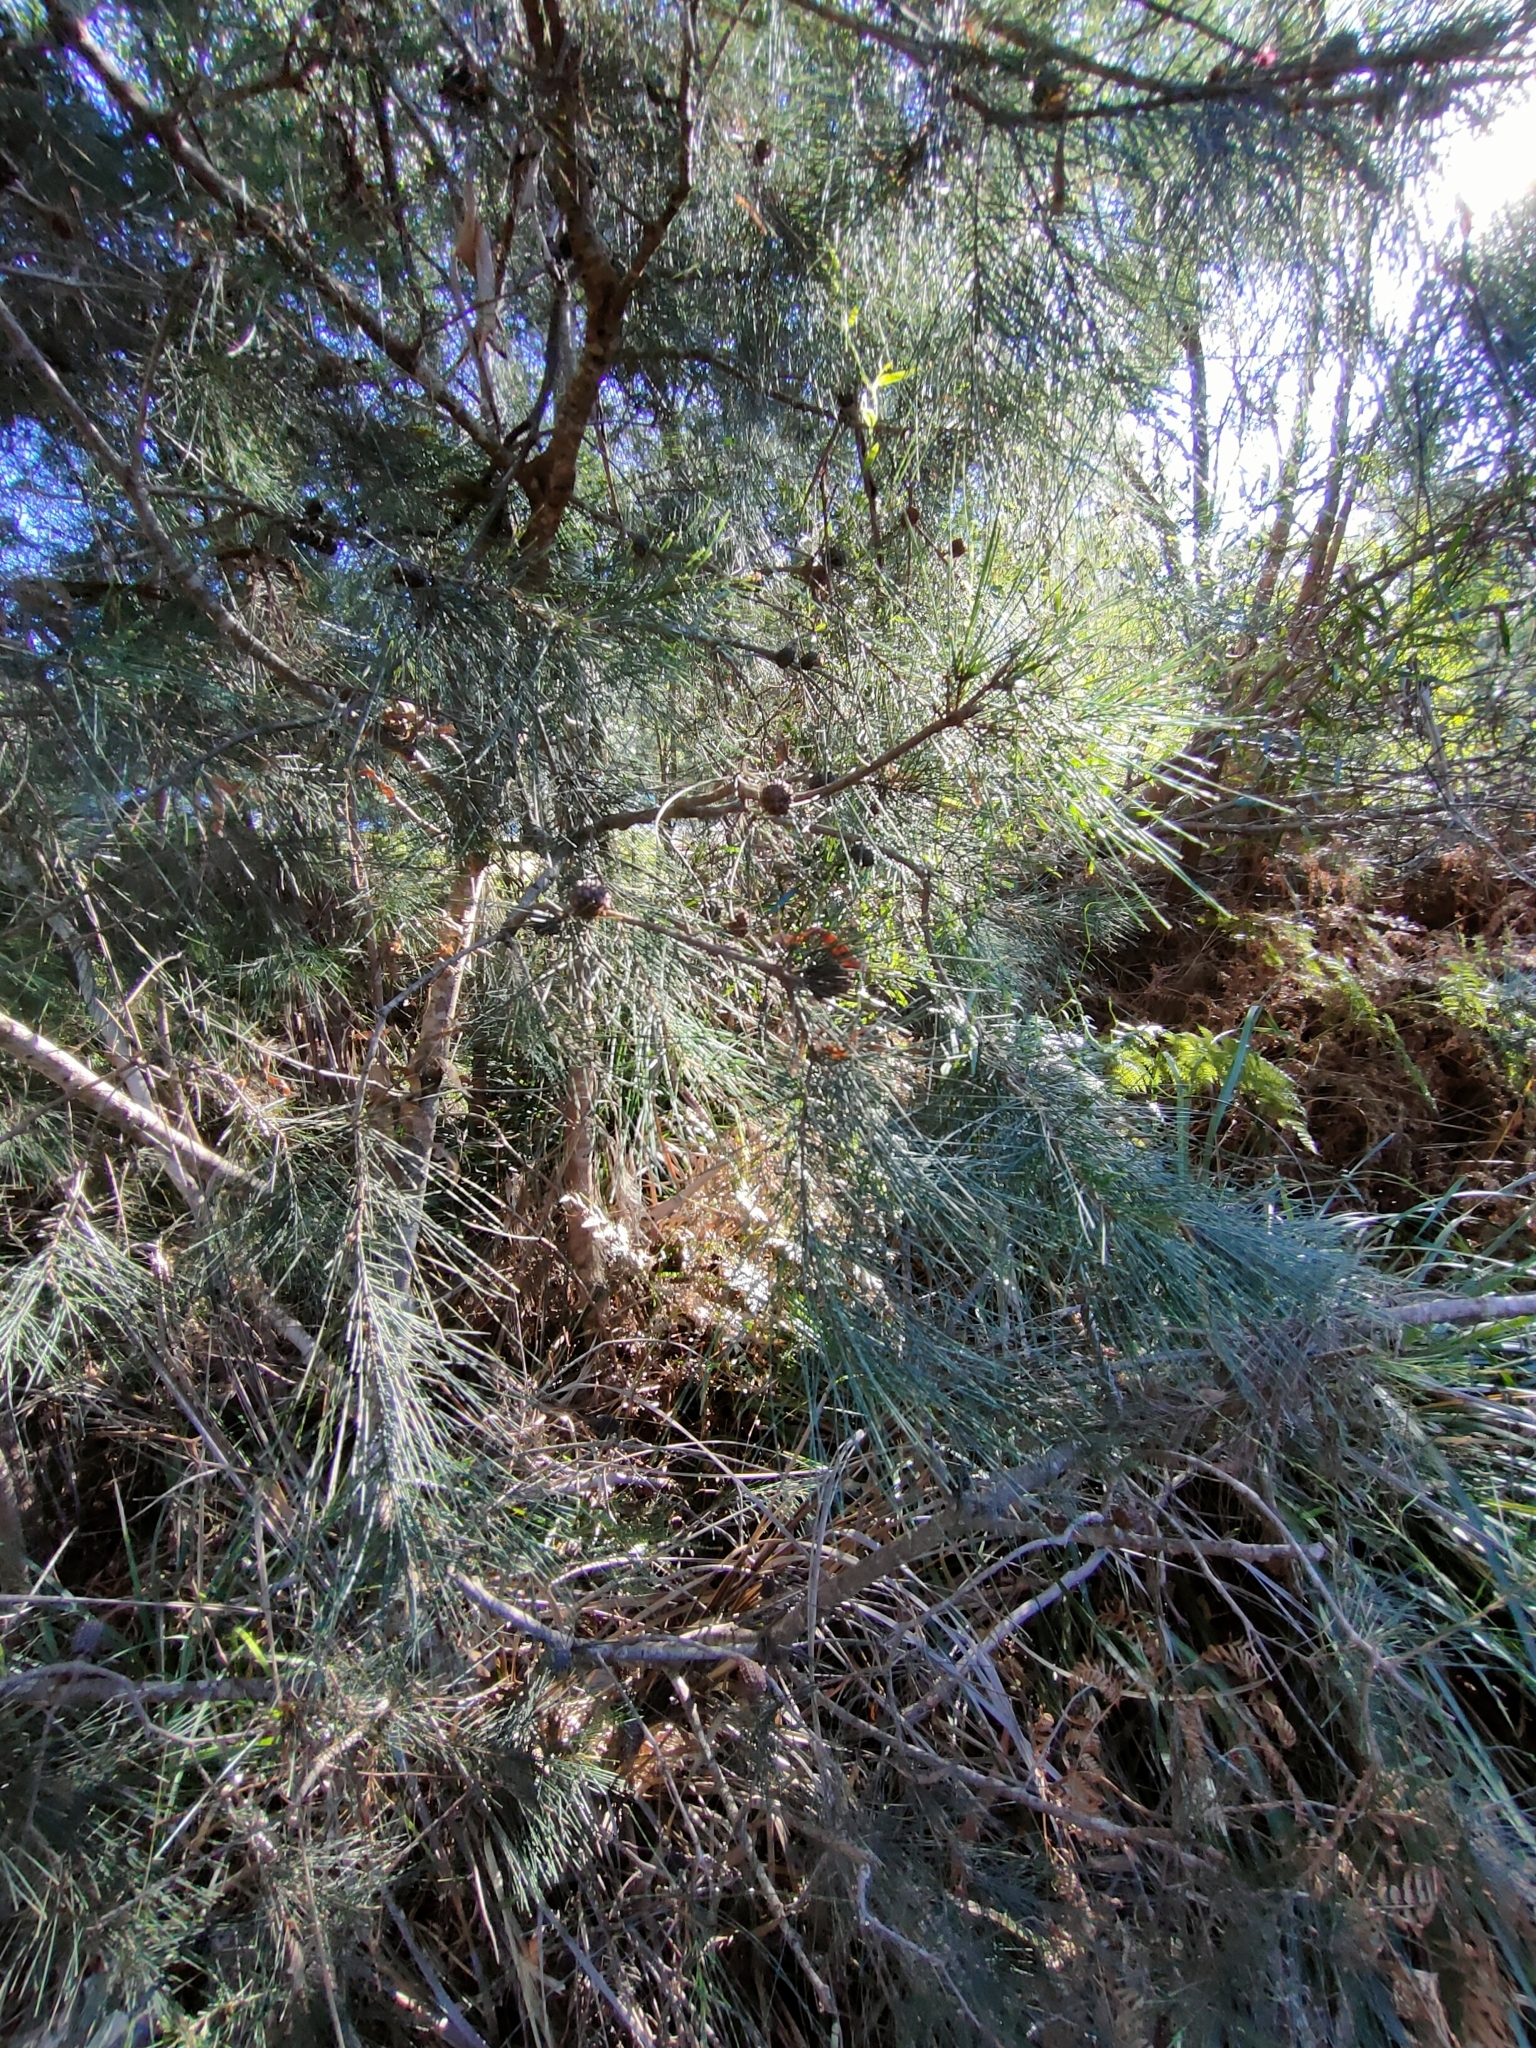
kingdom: Plantae
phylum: Tracheophyta
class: Magnoliopsida
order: Fagales
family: Casuarinaceae
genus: Allocasuarina
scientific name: Allocasuarina verticillata
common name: Drooping she-oak
